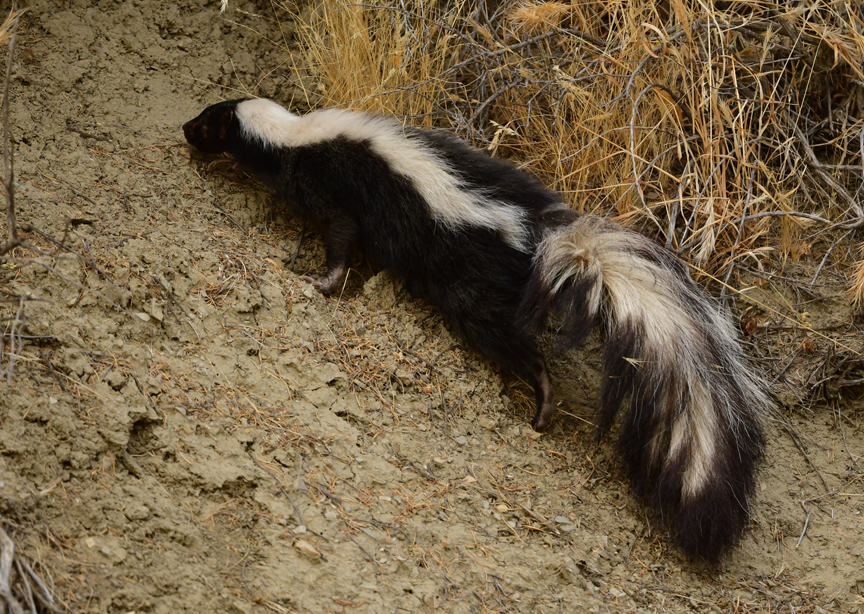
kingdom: Animalia
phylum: Chordata
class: Mammalia
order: Carnivora
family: Mephitidae
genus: Mephitis
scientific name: Mephitis mephitis
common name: Striped skunk
